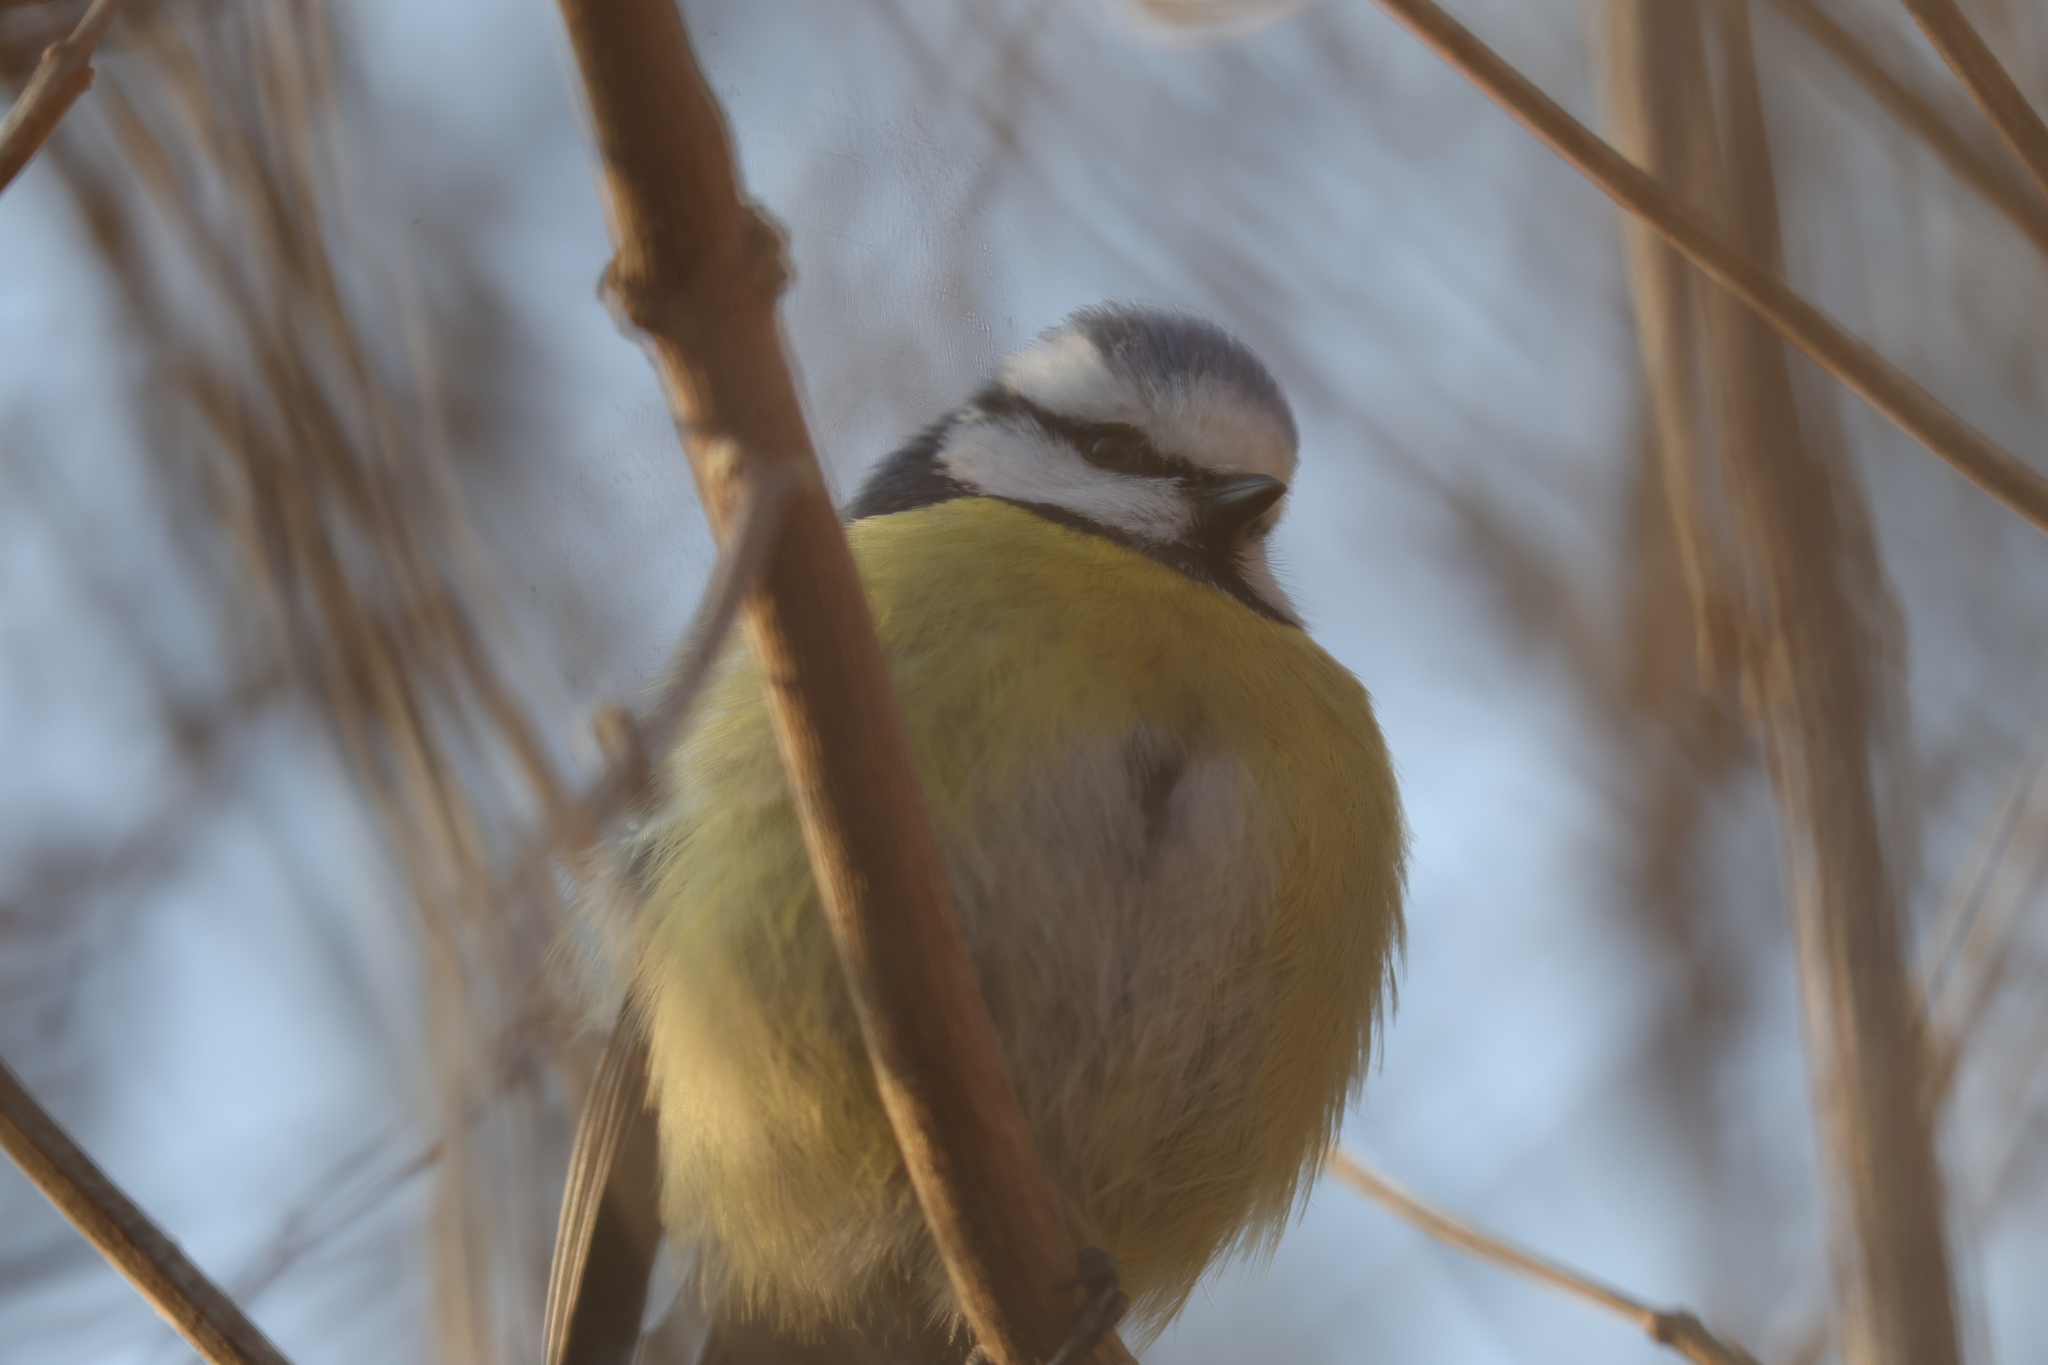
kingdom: Animalia
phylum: Chordata
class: Aves
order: Passeriformes
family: Paridae
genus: Cyanistes
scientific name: Cyanistes caeruleus
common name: Eurasian blue tit
